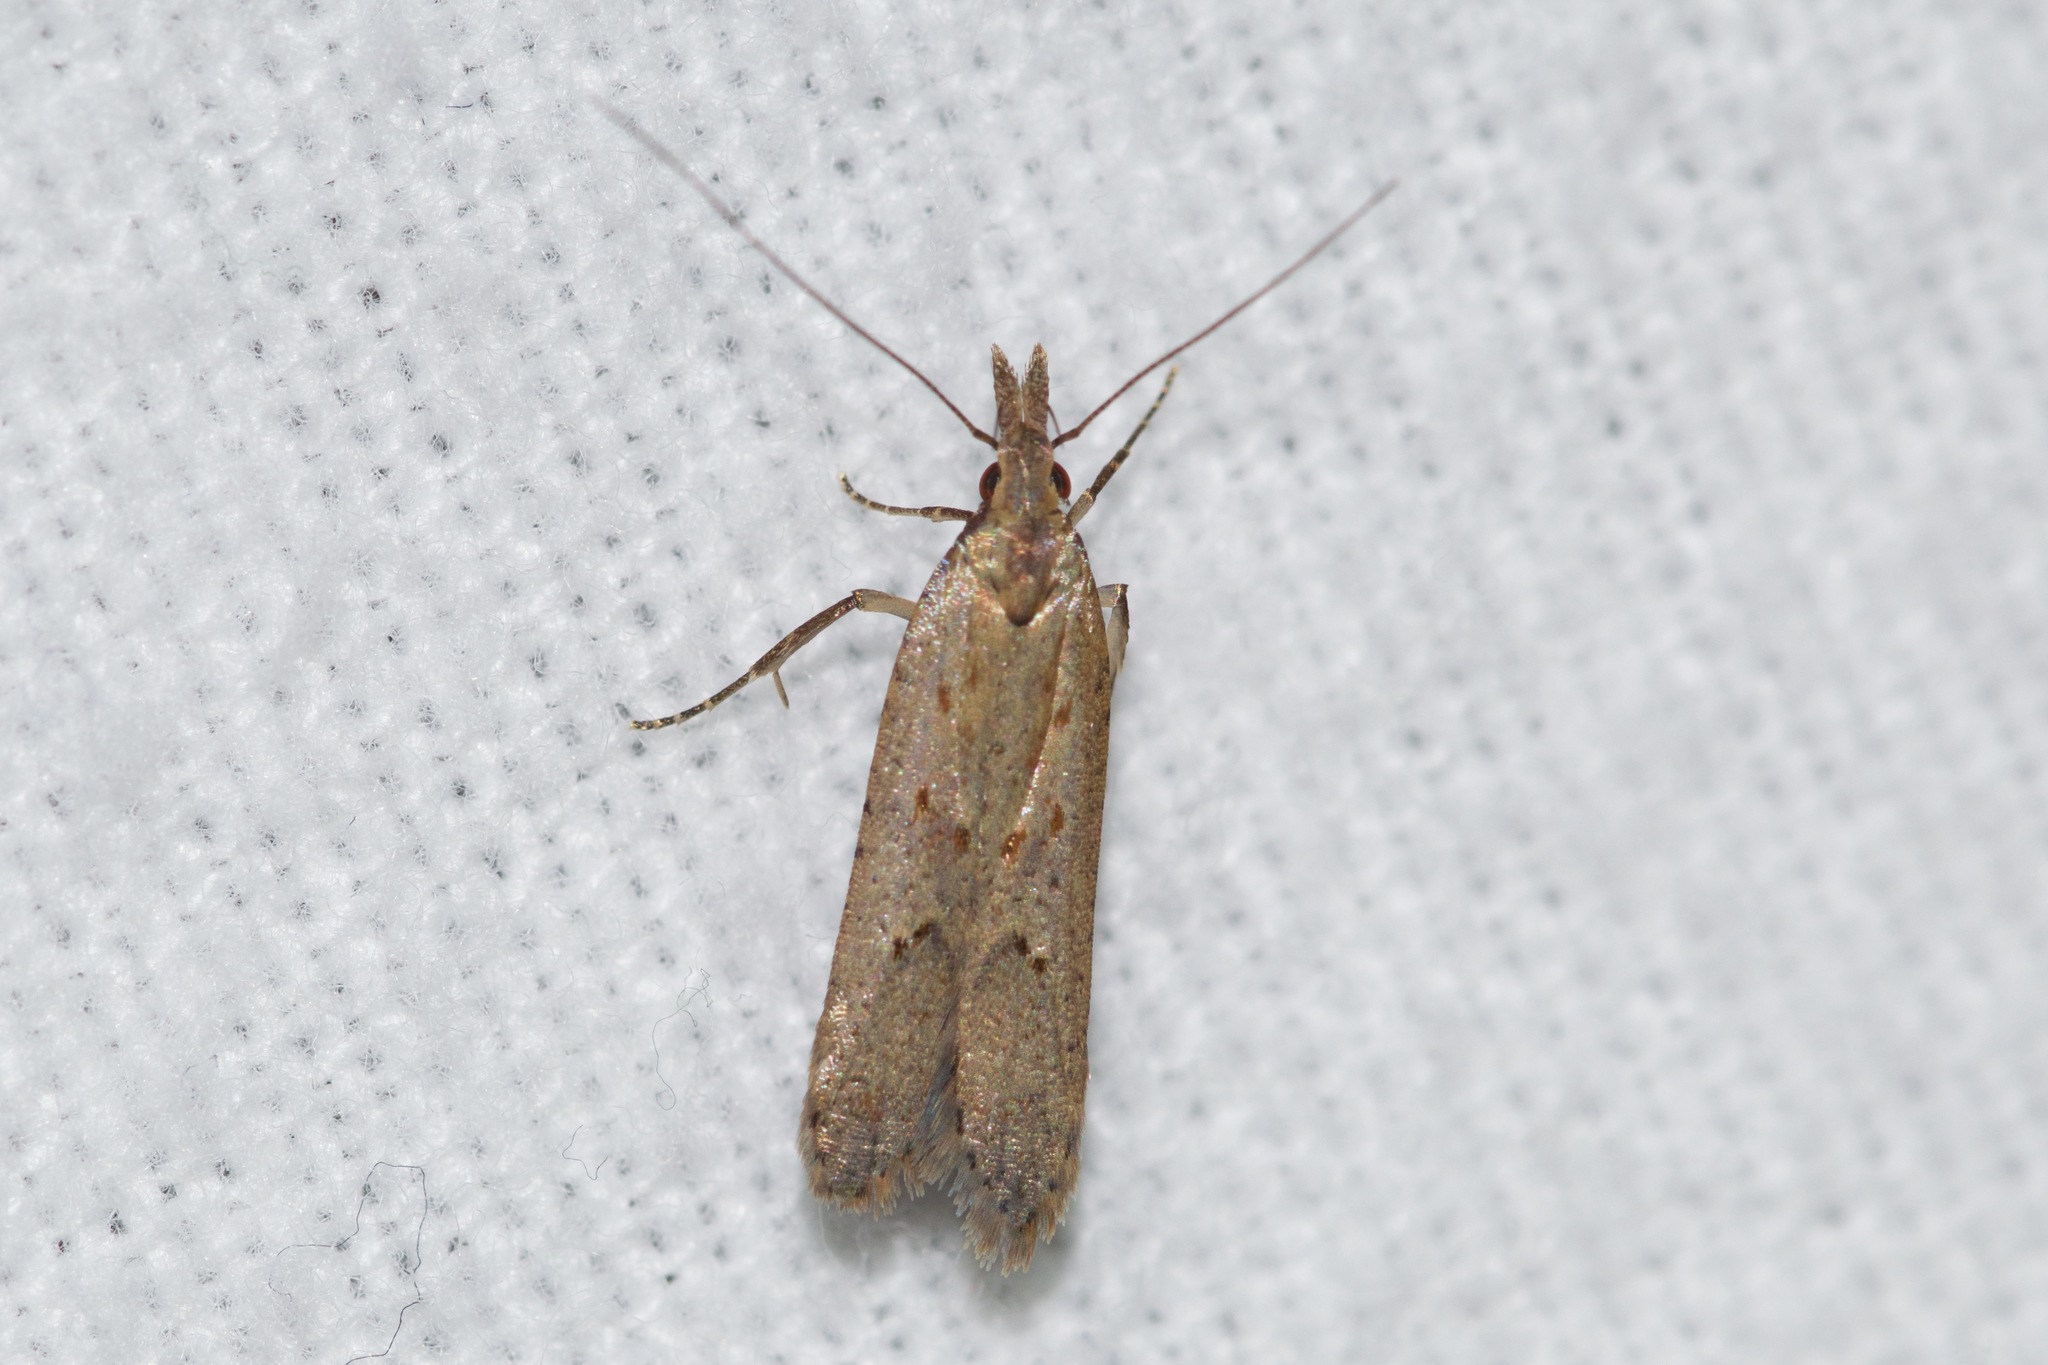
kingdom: Animalia
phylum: Arthropoda
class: Insecta
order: Lepidoptera
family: Gelechiidae
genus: Dichomeris
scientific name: Dichomeris ligulella
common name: Moth
